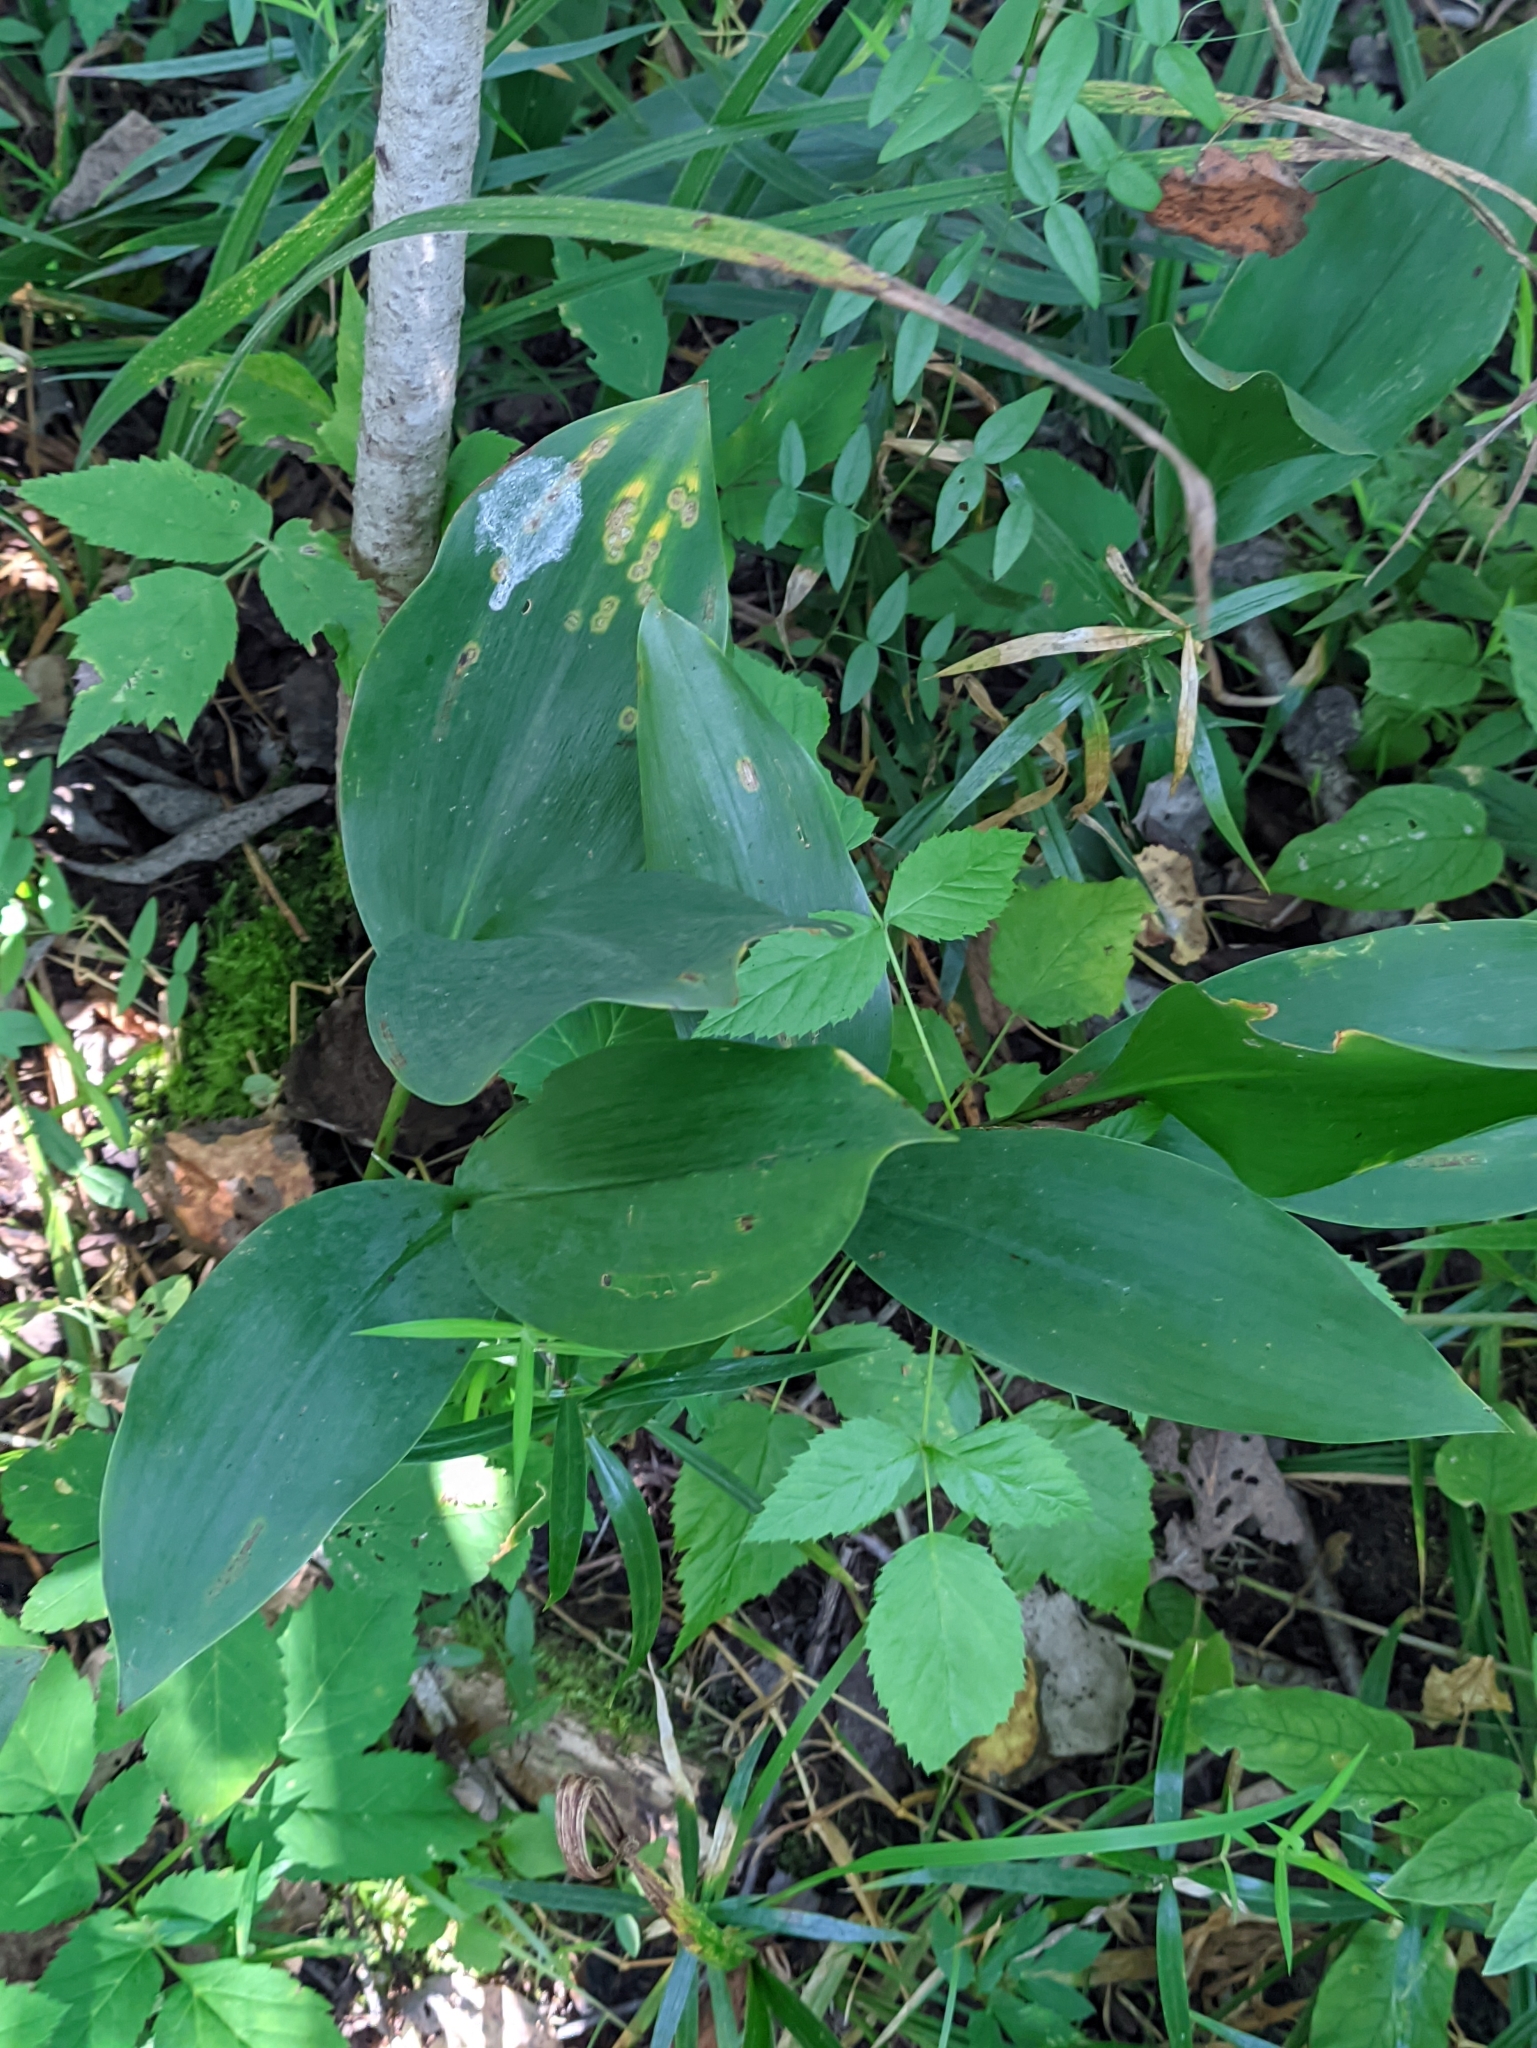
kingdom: Plantae
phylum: Tracheophyta
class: Liliopsida
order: Asparagales
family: Asparagaceae
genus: Convallaria
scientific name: Convallaria majalis
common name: Lily-of-the-valley
